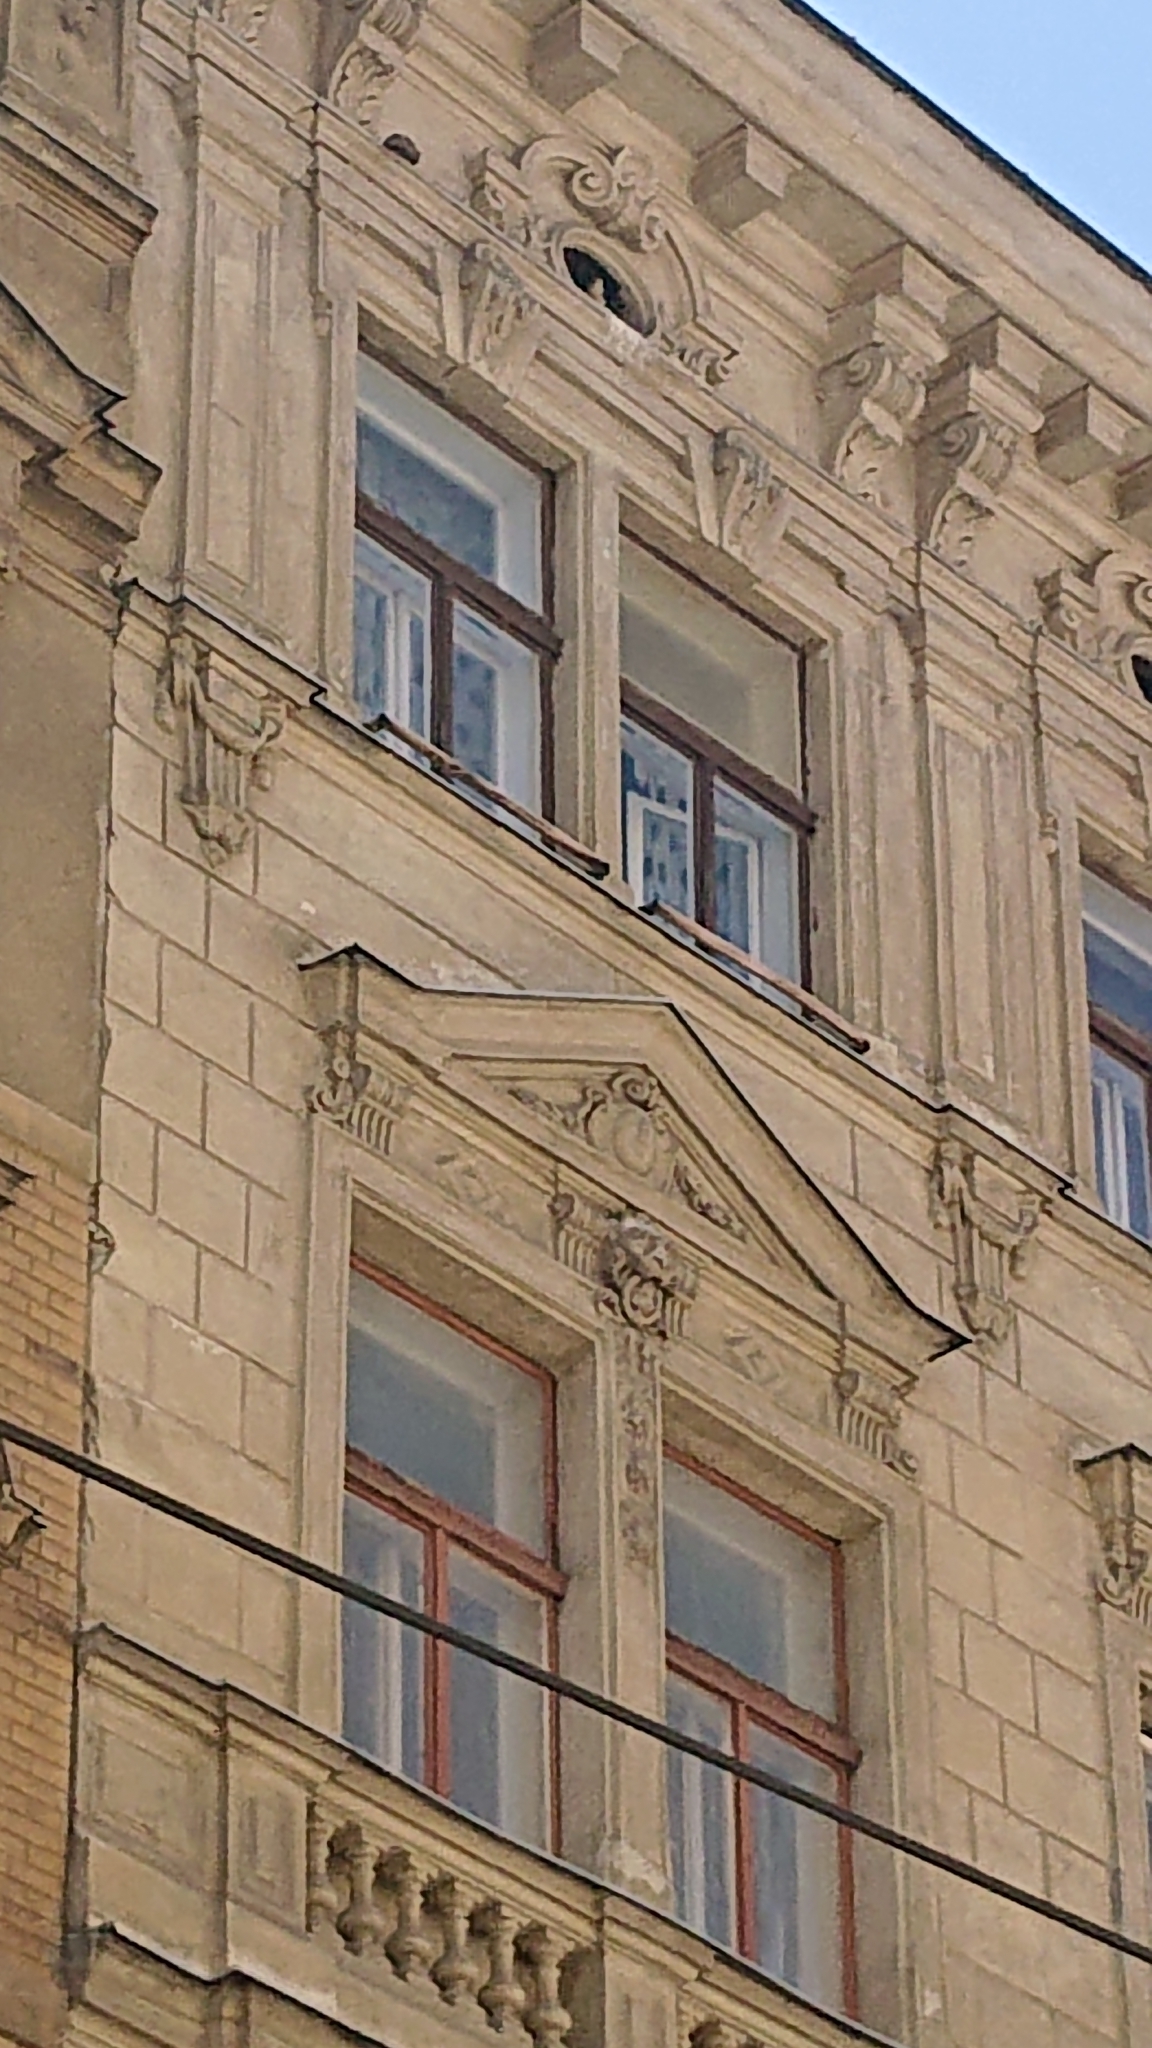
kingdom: Animalia
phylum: Chordata
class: Aves
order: Falconiformes
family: Falconidae
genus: Falco
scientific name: Falco tinnunculus
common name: Common kestrel
